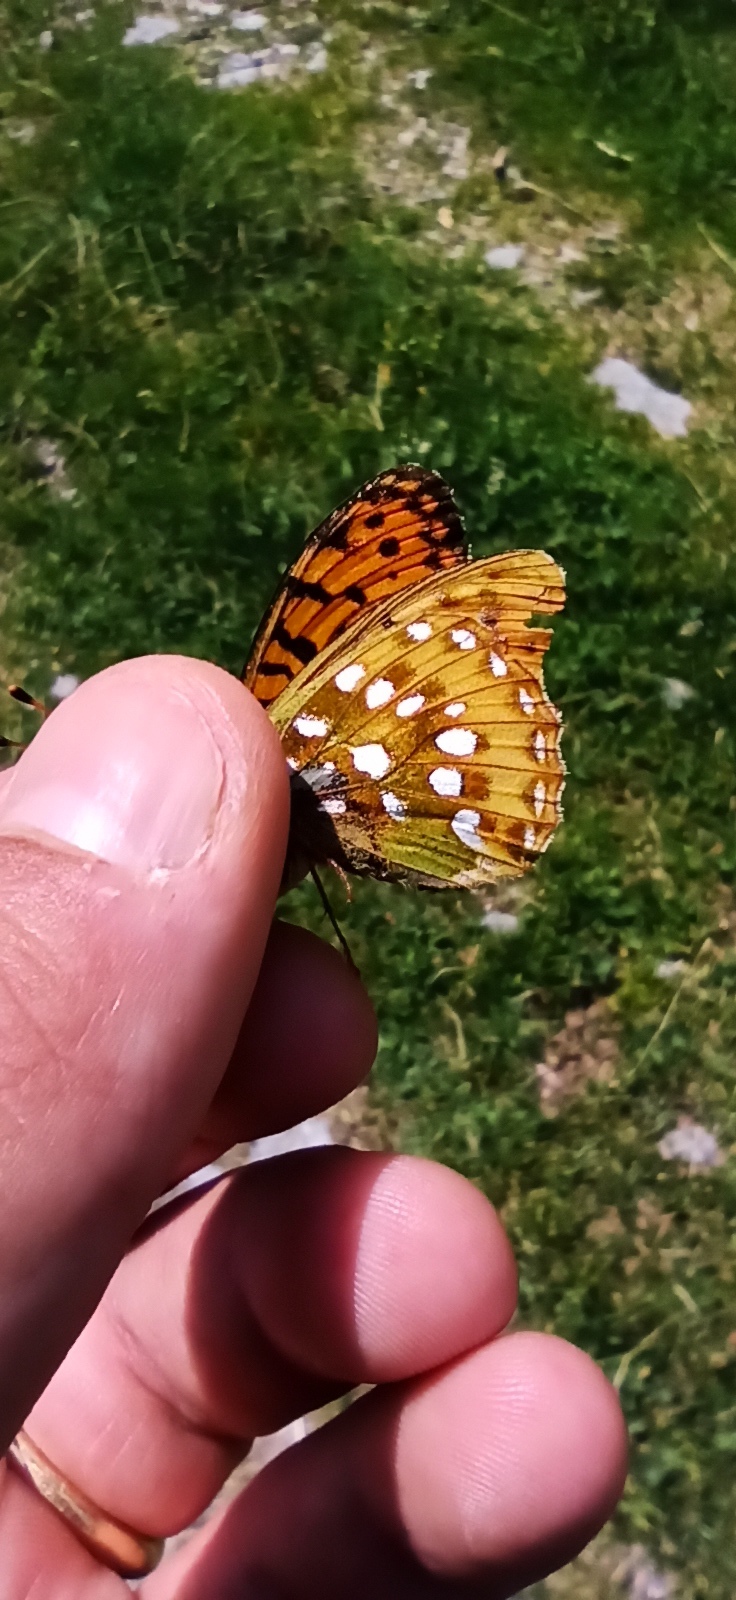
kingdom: Animalia
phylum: Arthropoda
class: Insecta
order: Lepidoptera
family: Nymphalidae
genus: Speyeria
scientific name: Speyeria aglaja
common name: Dark green fritillary
